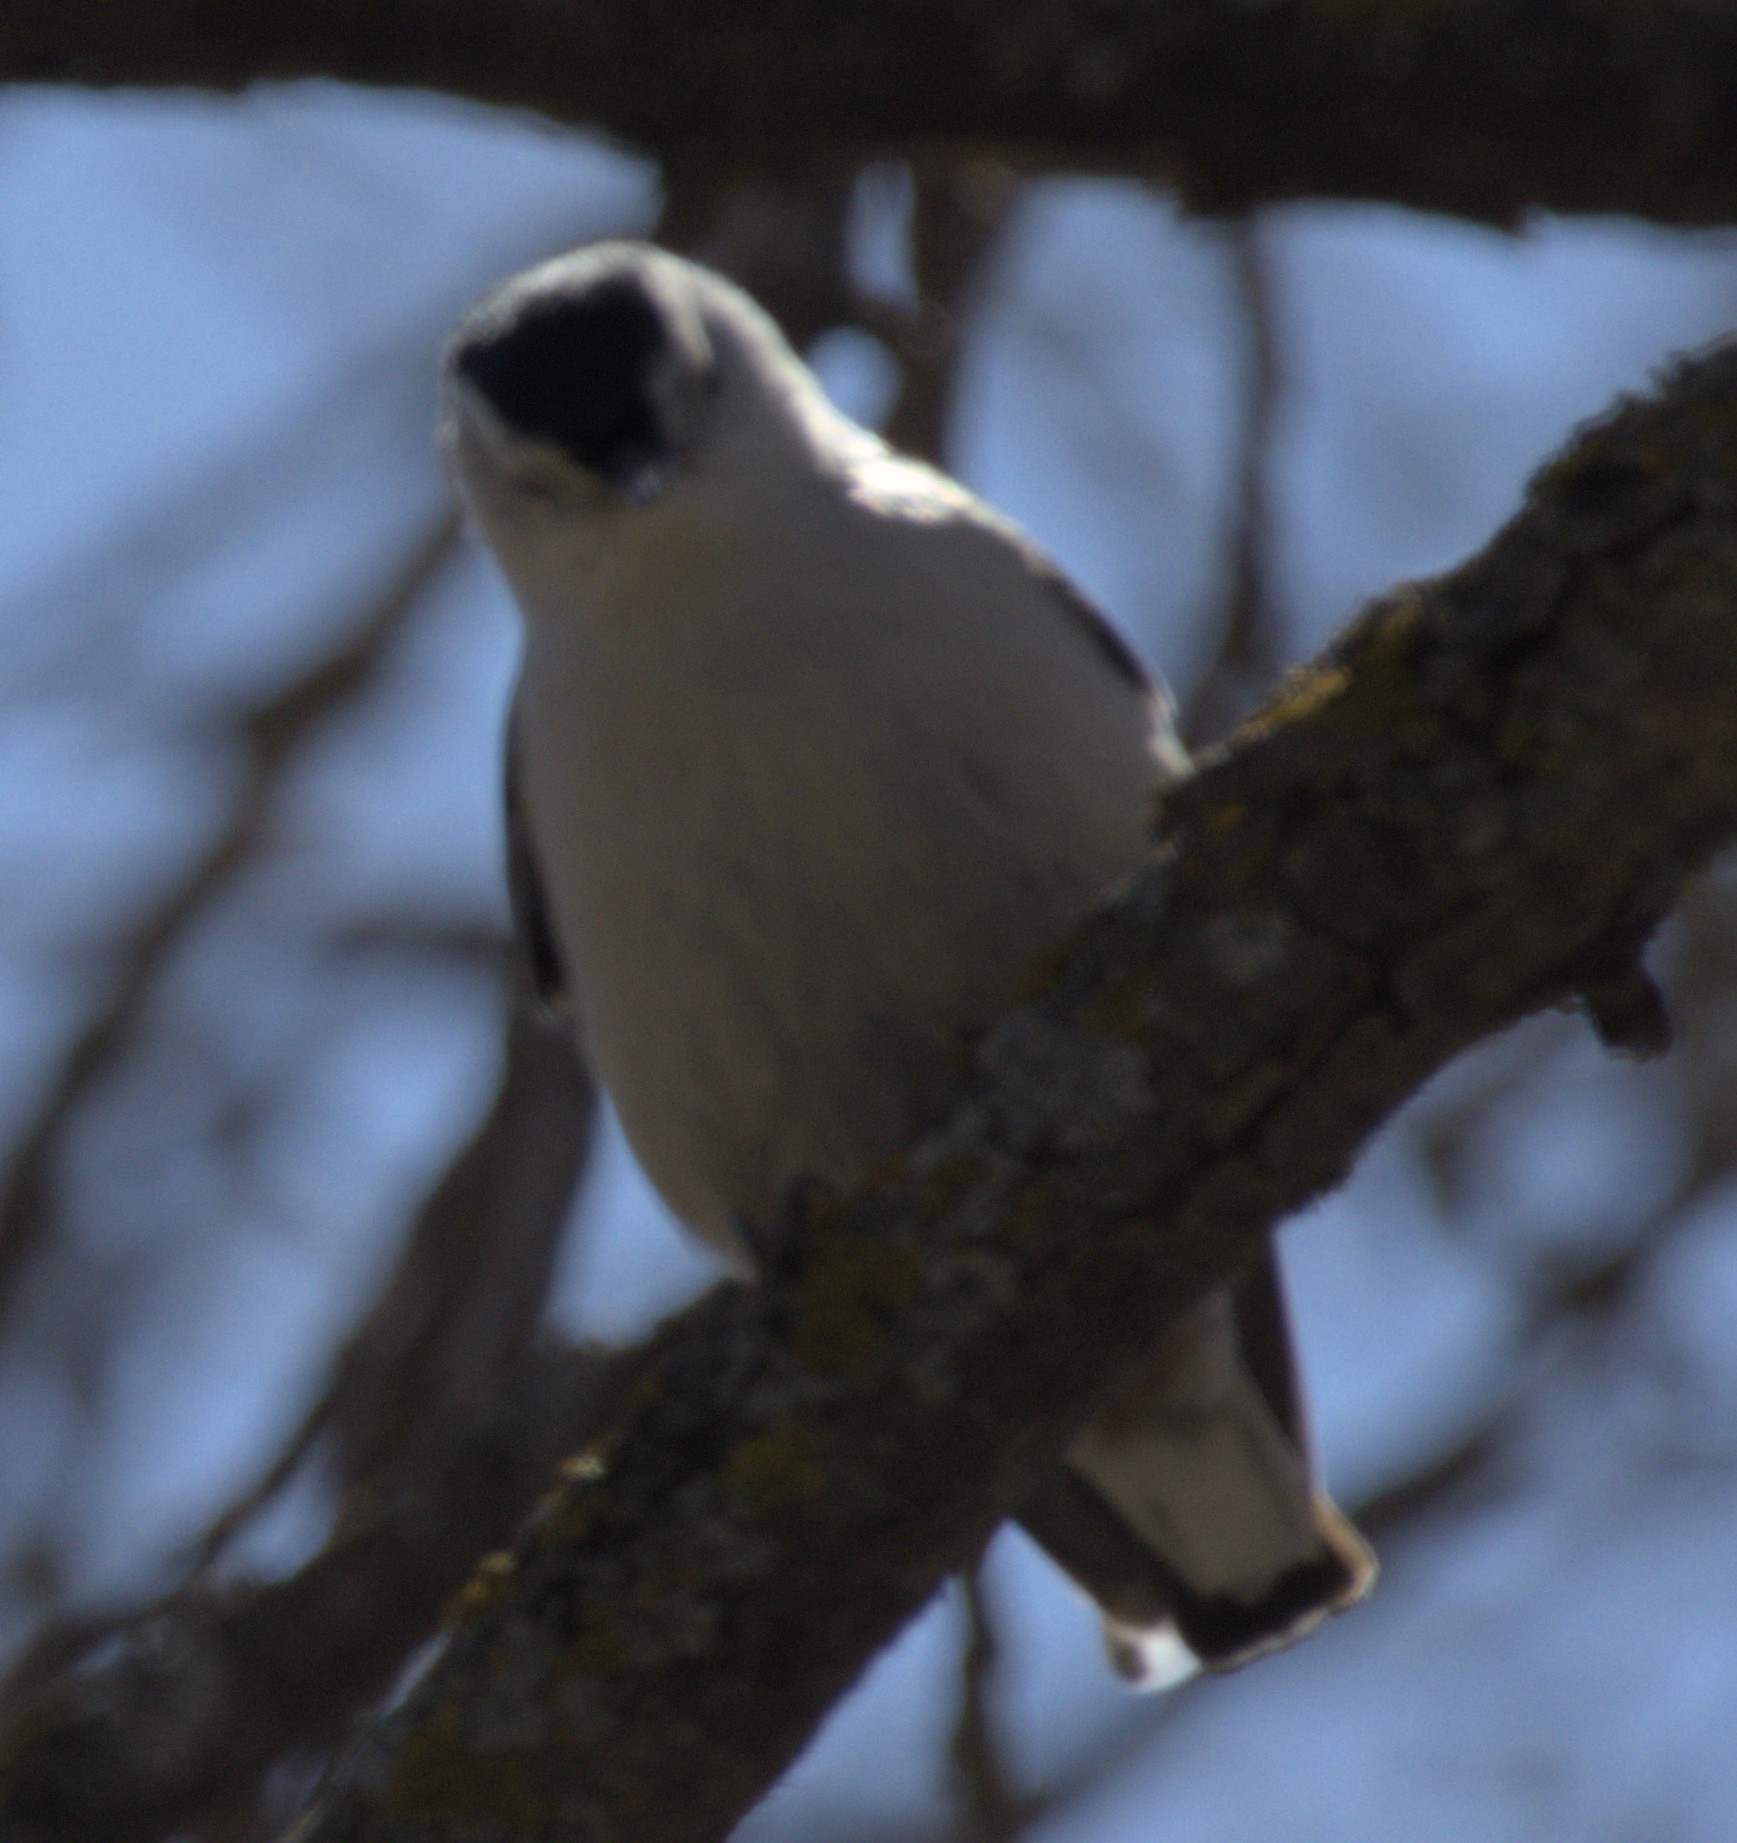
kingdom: Animalia
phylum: Chordata
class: Aves
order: Passeriformes
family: Sittidae
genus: Sitta
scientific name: Sitta carolinensis
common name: White-breasted nuthatch
